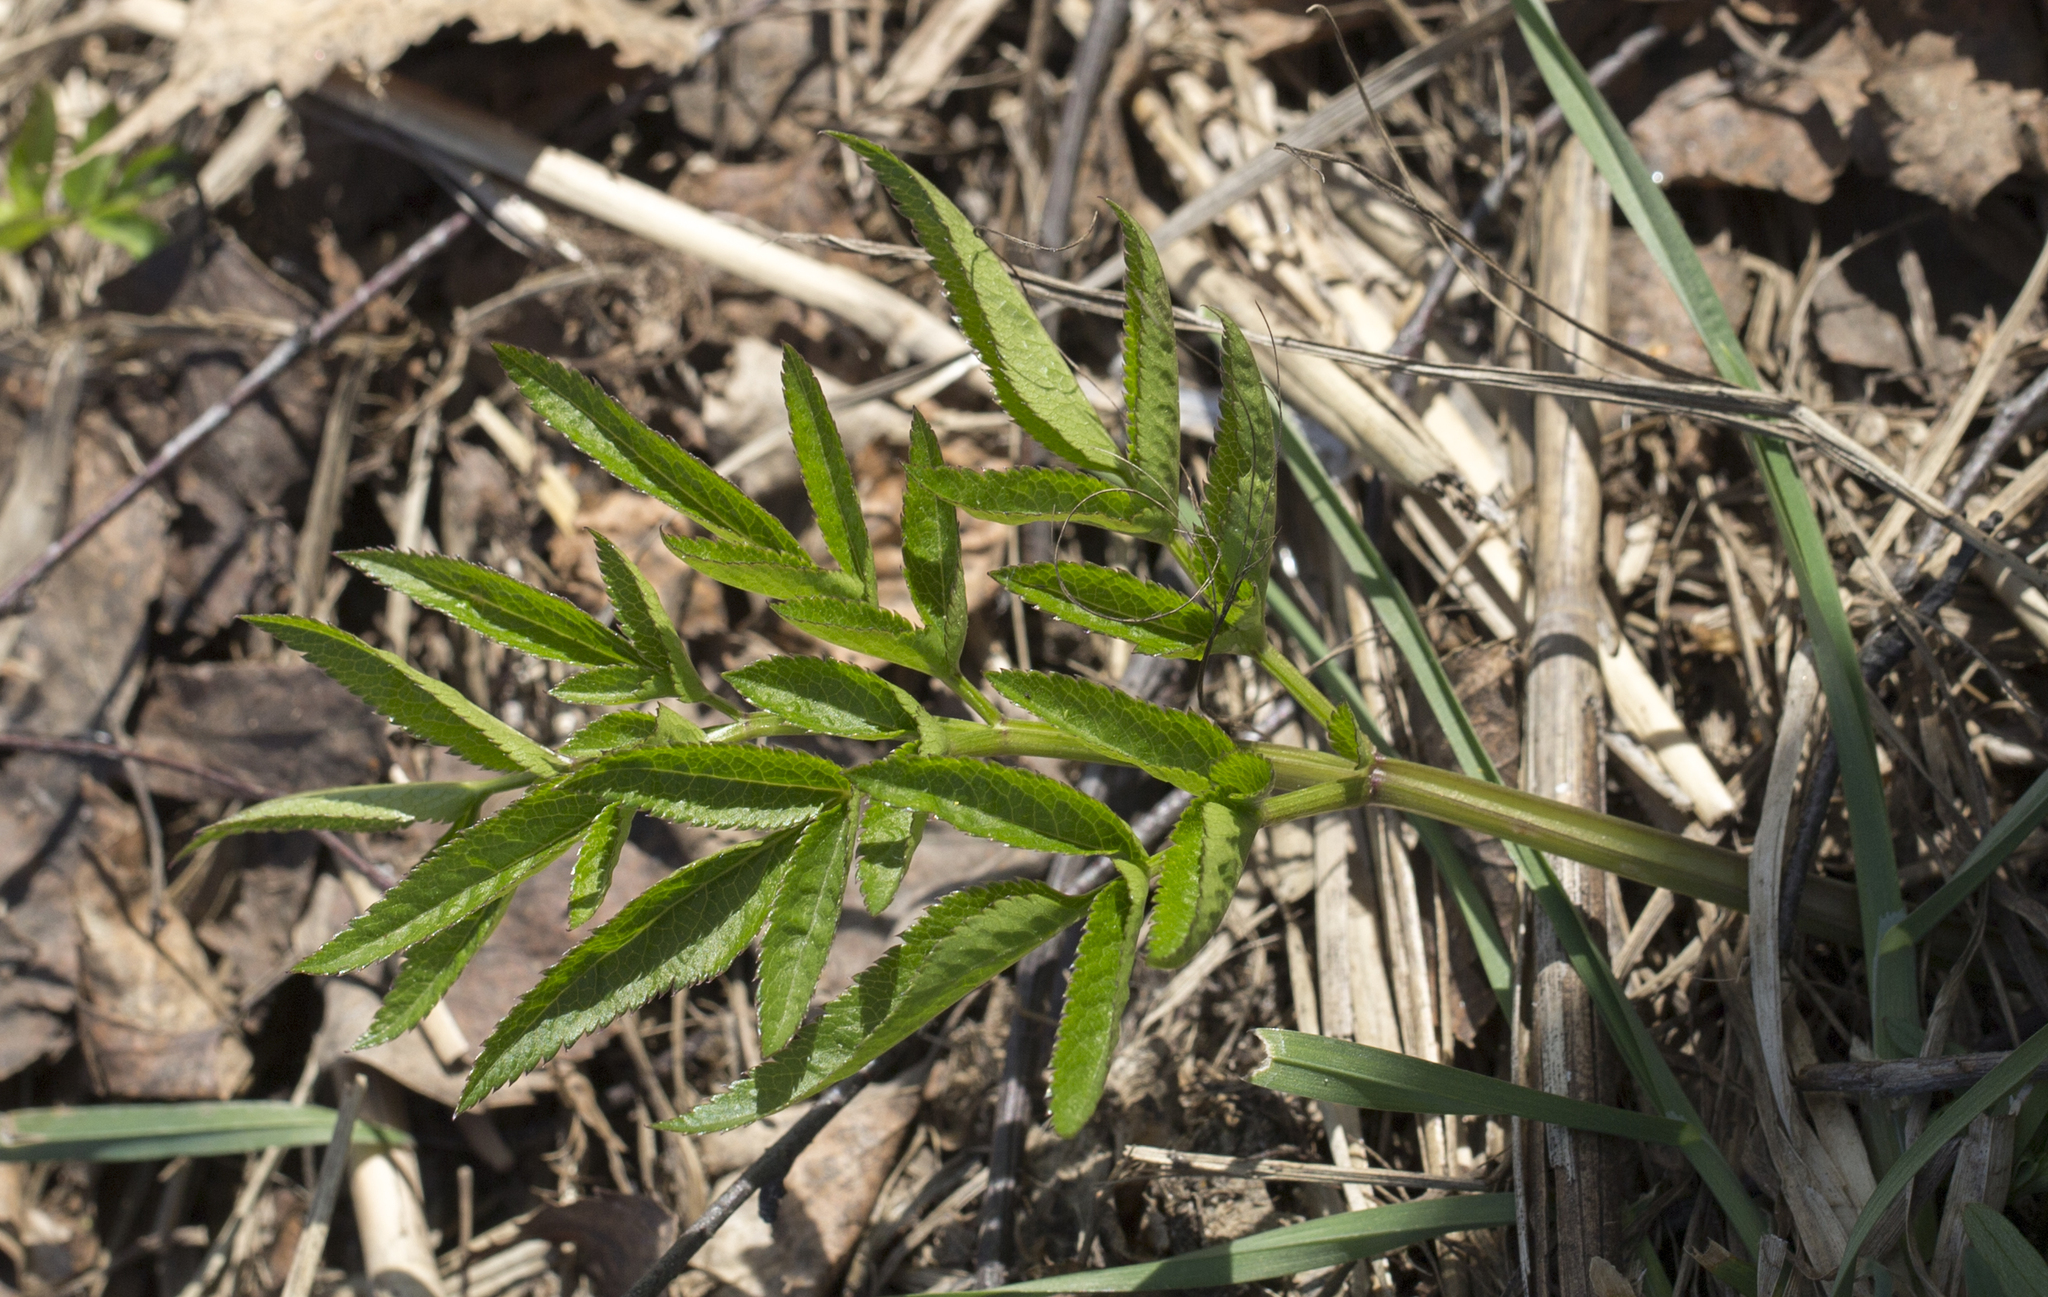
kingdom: Plantae
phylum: Tracheophyta
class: Magnoliopsida
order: Apiales
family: Apiaceae
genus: Angelica
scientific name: Angelica sylvestris
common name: Wild angelica
